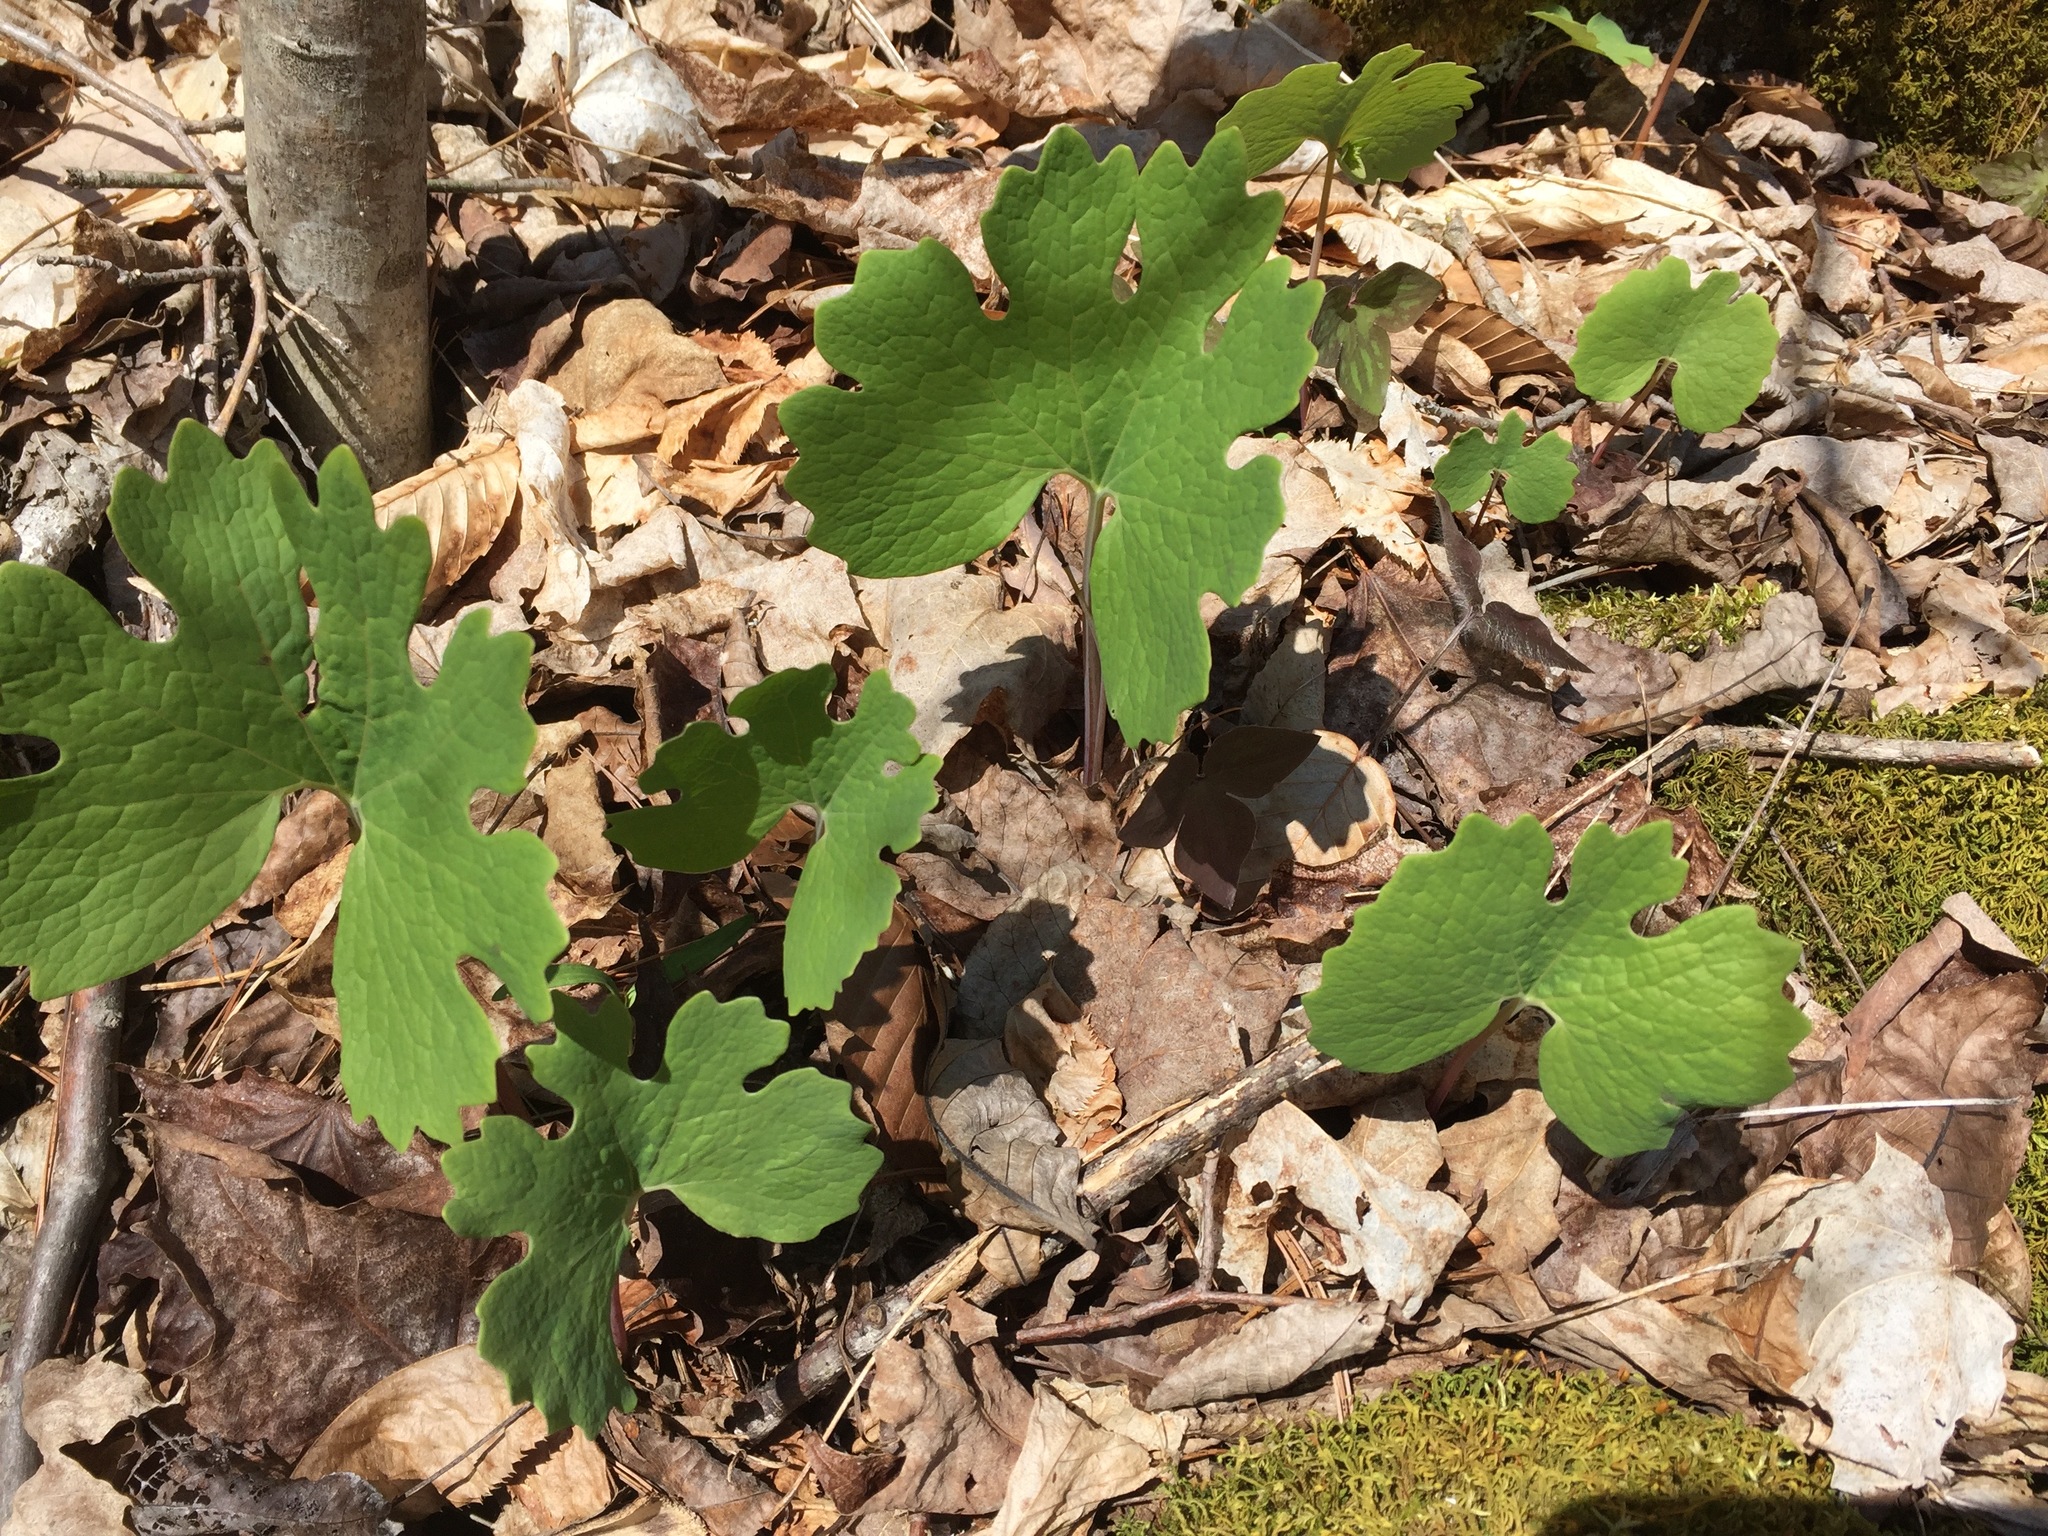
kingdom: Plantae
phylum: Tracheophyta
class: Magnoliopsida
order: Ranunculales
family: Papaveraceae
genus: Sanguinaria
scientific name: Sanguinaria canadensis
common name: Bloodroot
